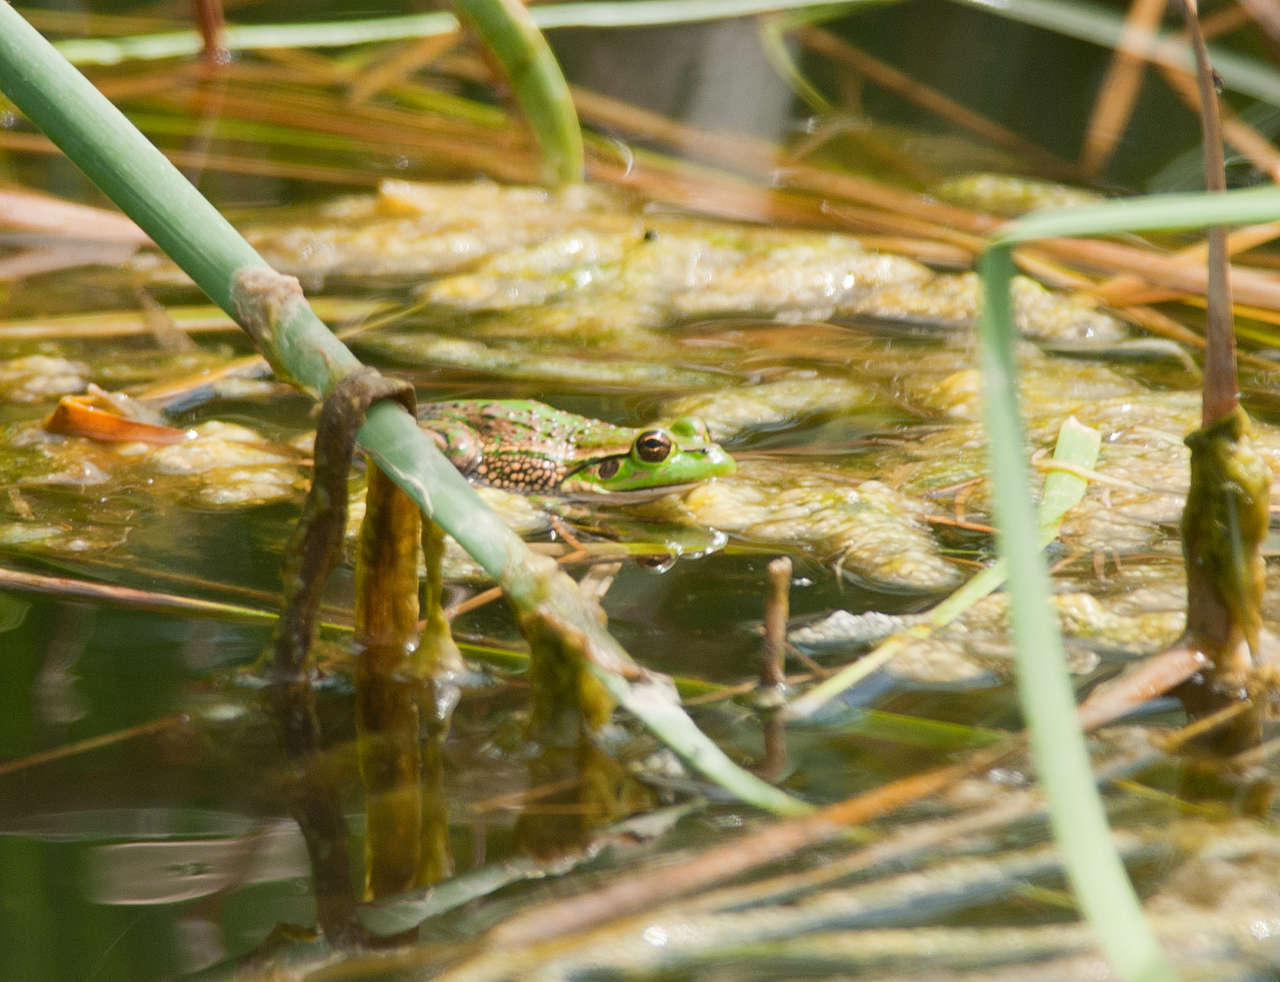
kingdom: Animalia
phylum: Chordata
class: Amphibia
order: Anura
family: Pelodryadidae
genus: Ranoidea
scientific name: Ranoidea raniformis
